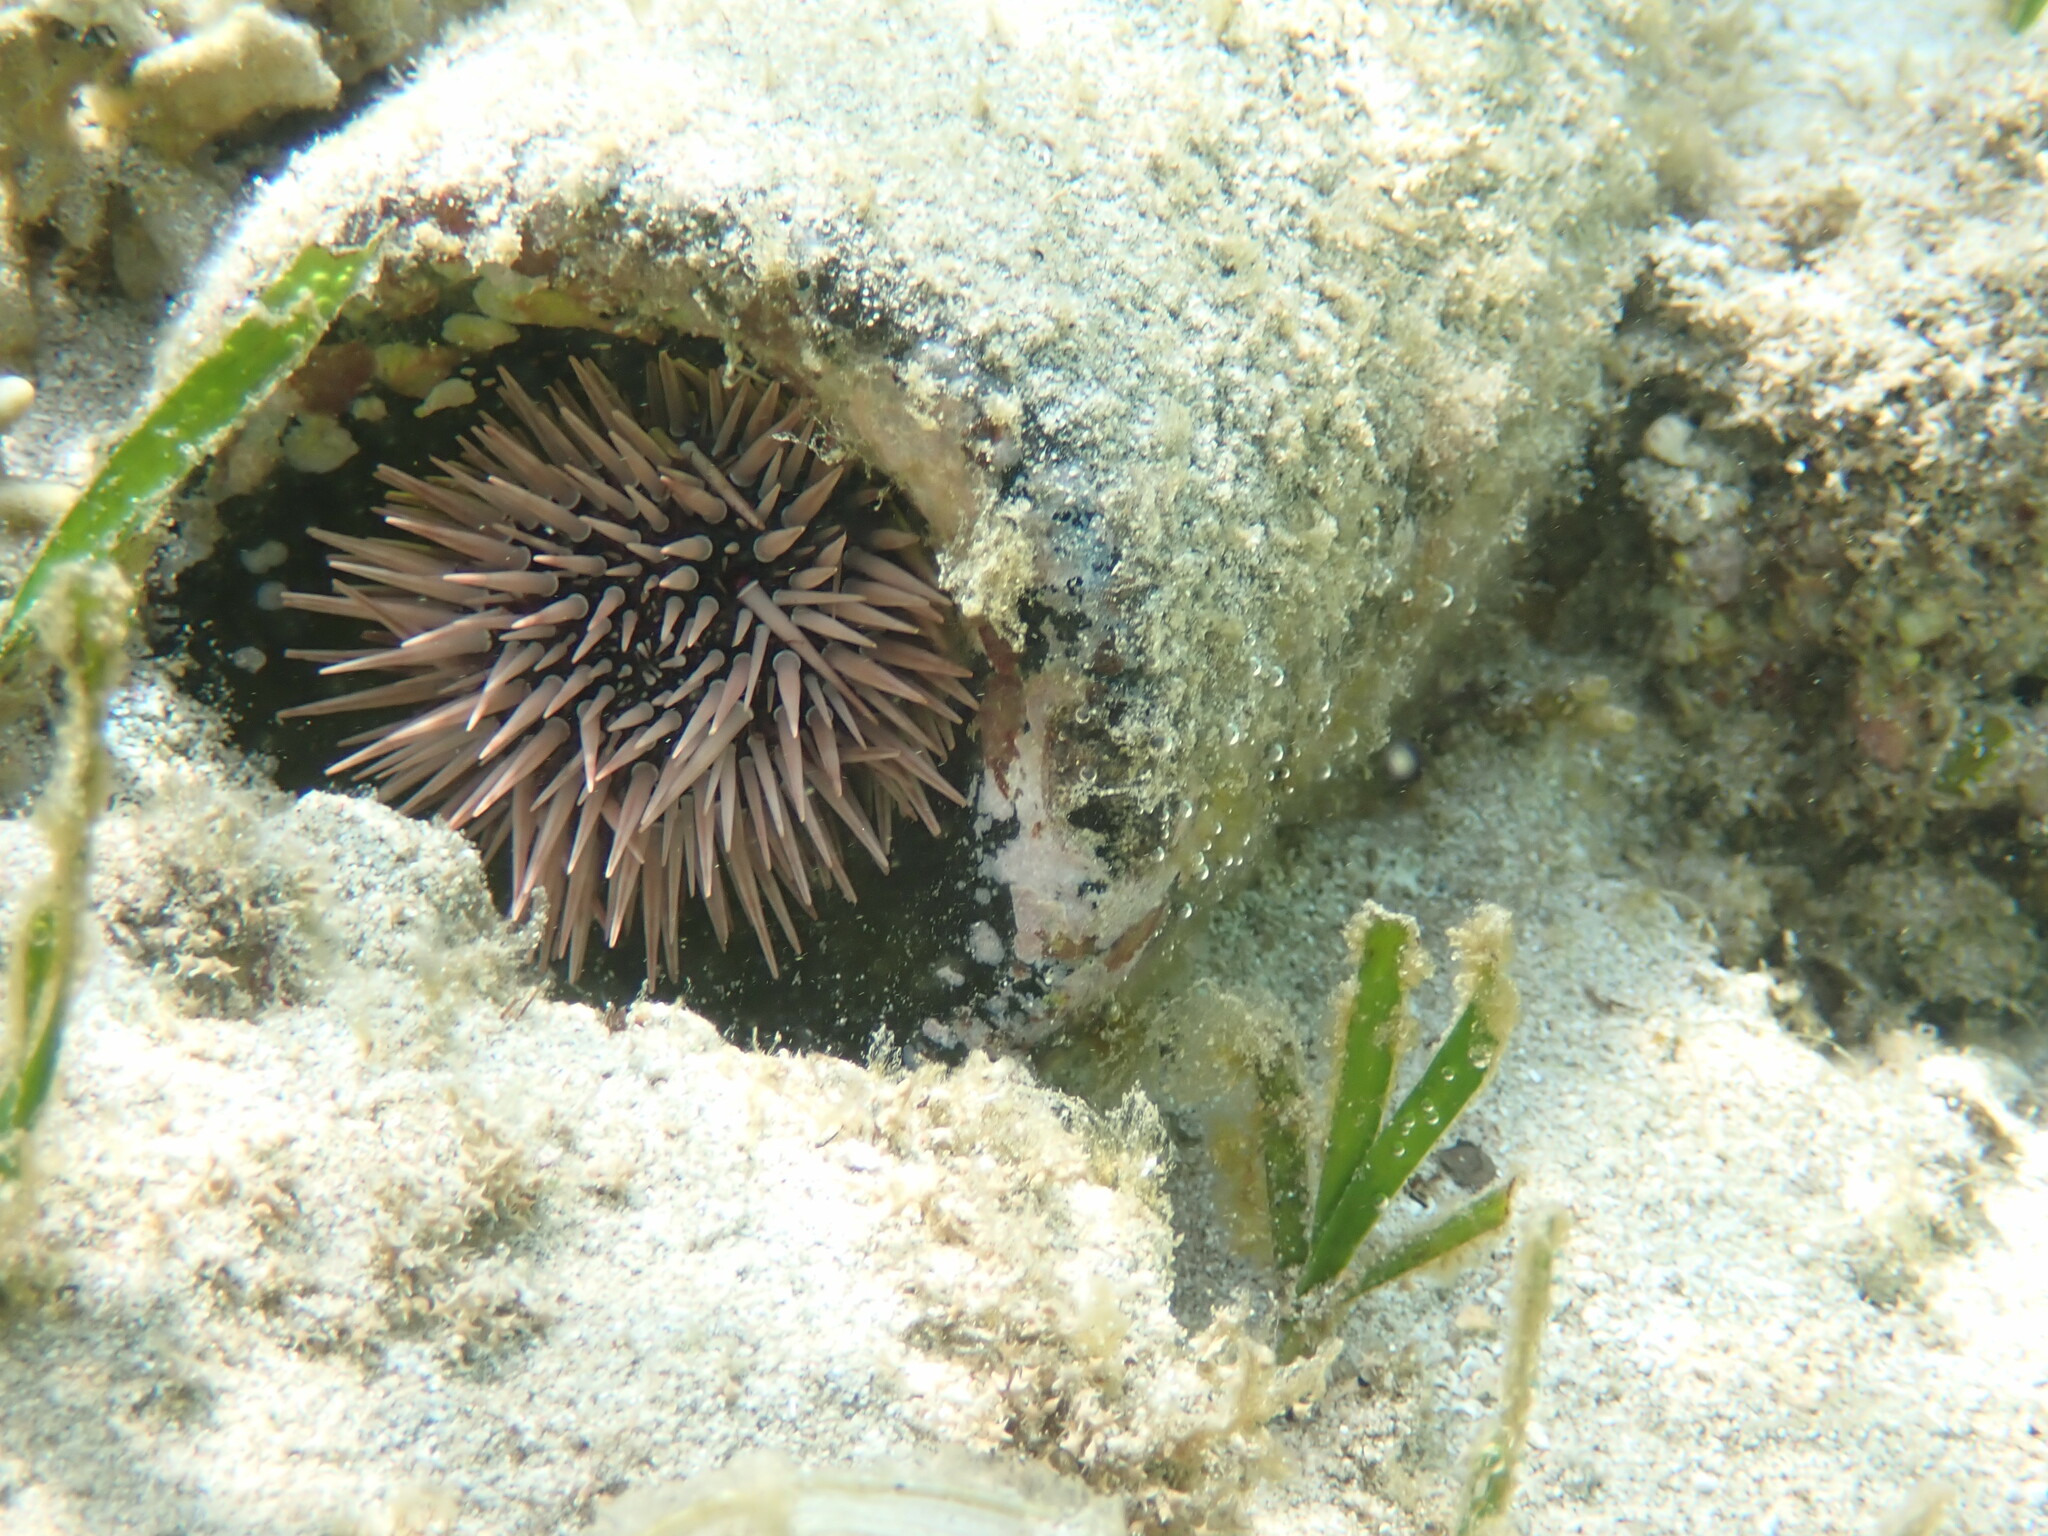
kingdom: Animalia
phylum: Echinodermata
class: Echinoidea
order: Camarodonta
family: Echinometridae
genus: Echinometra
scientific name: Echinometra mathaei
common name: Rock-boring urchin
